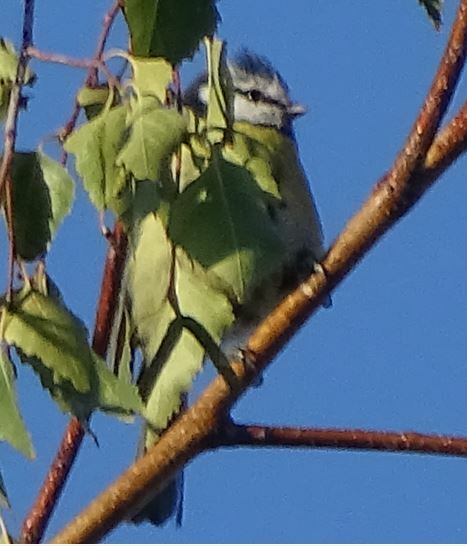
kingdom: Animalia
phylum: Chordata
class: Aves
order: Passeriformes
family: Paridae
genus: Cyanistes
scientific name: Cyanistes caeruleus
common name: Eurasian blue tit
